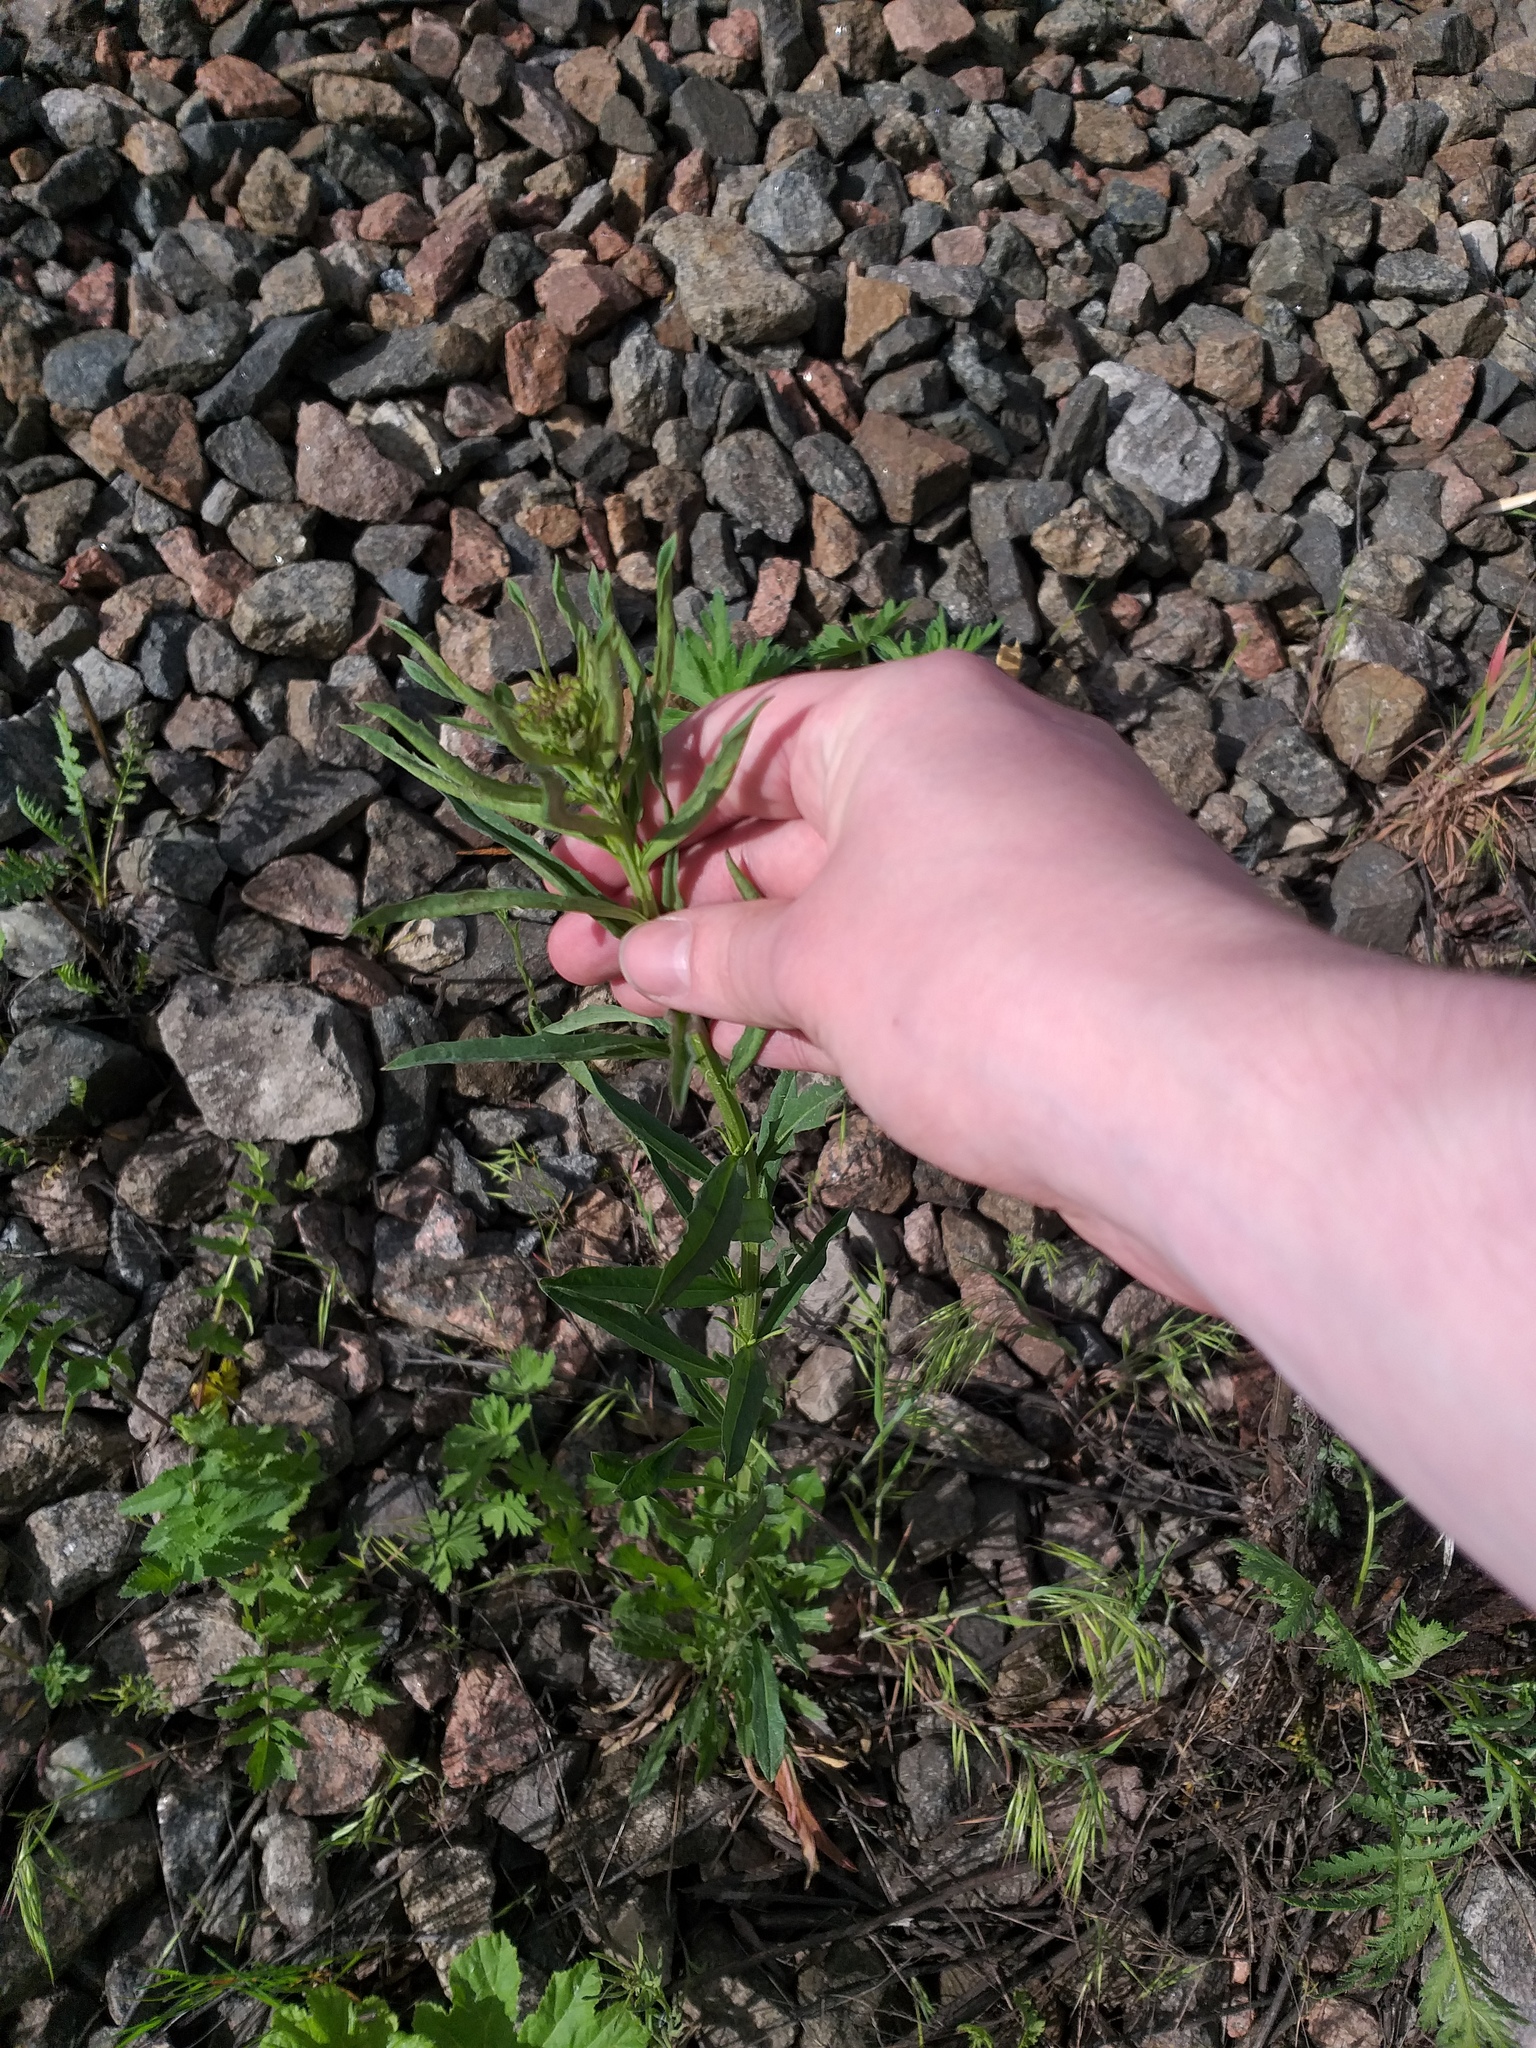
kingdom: Plantae
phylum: Tracheophyta
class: Magnoliopsida
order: Brassicales
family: Brassicaceae
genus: Erysimum
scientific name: Erysimum hieraciifolium
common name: European wallflower
